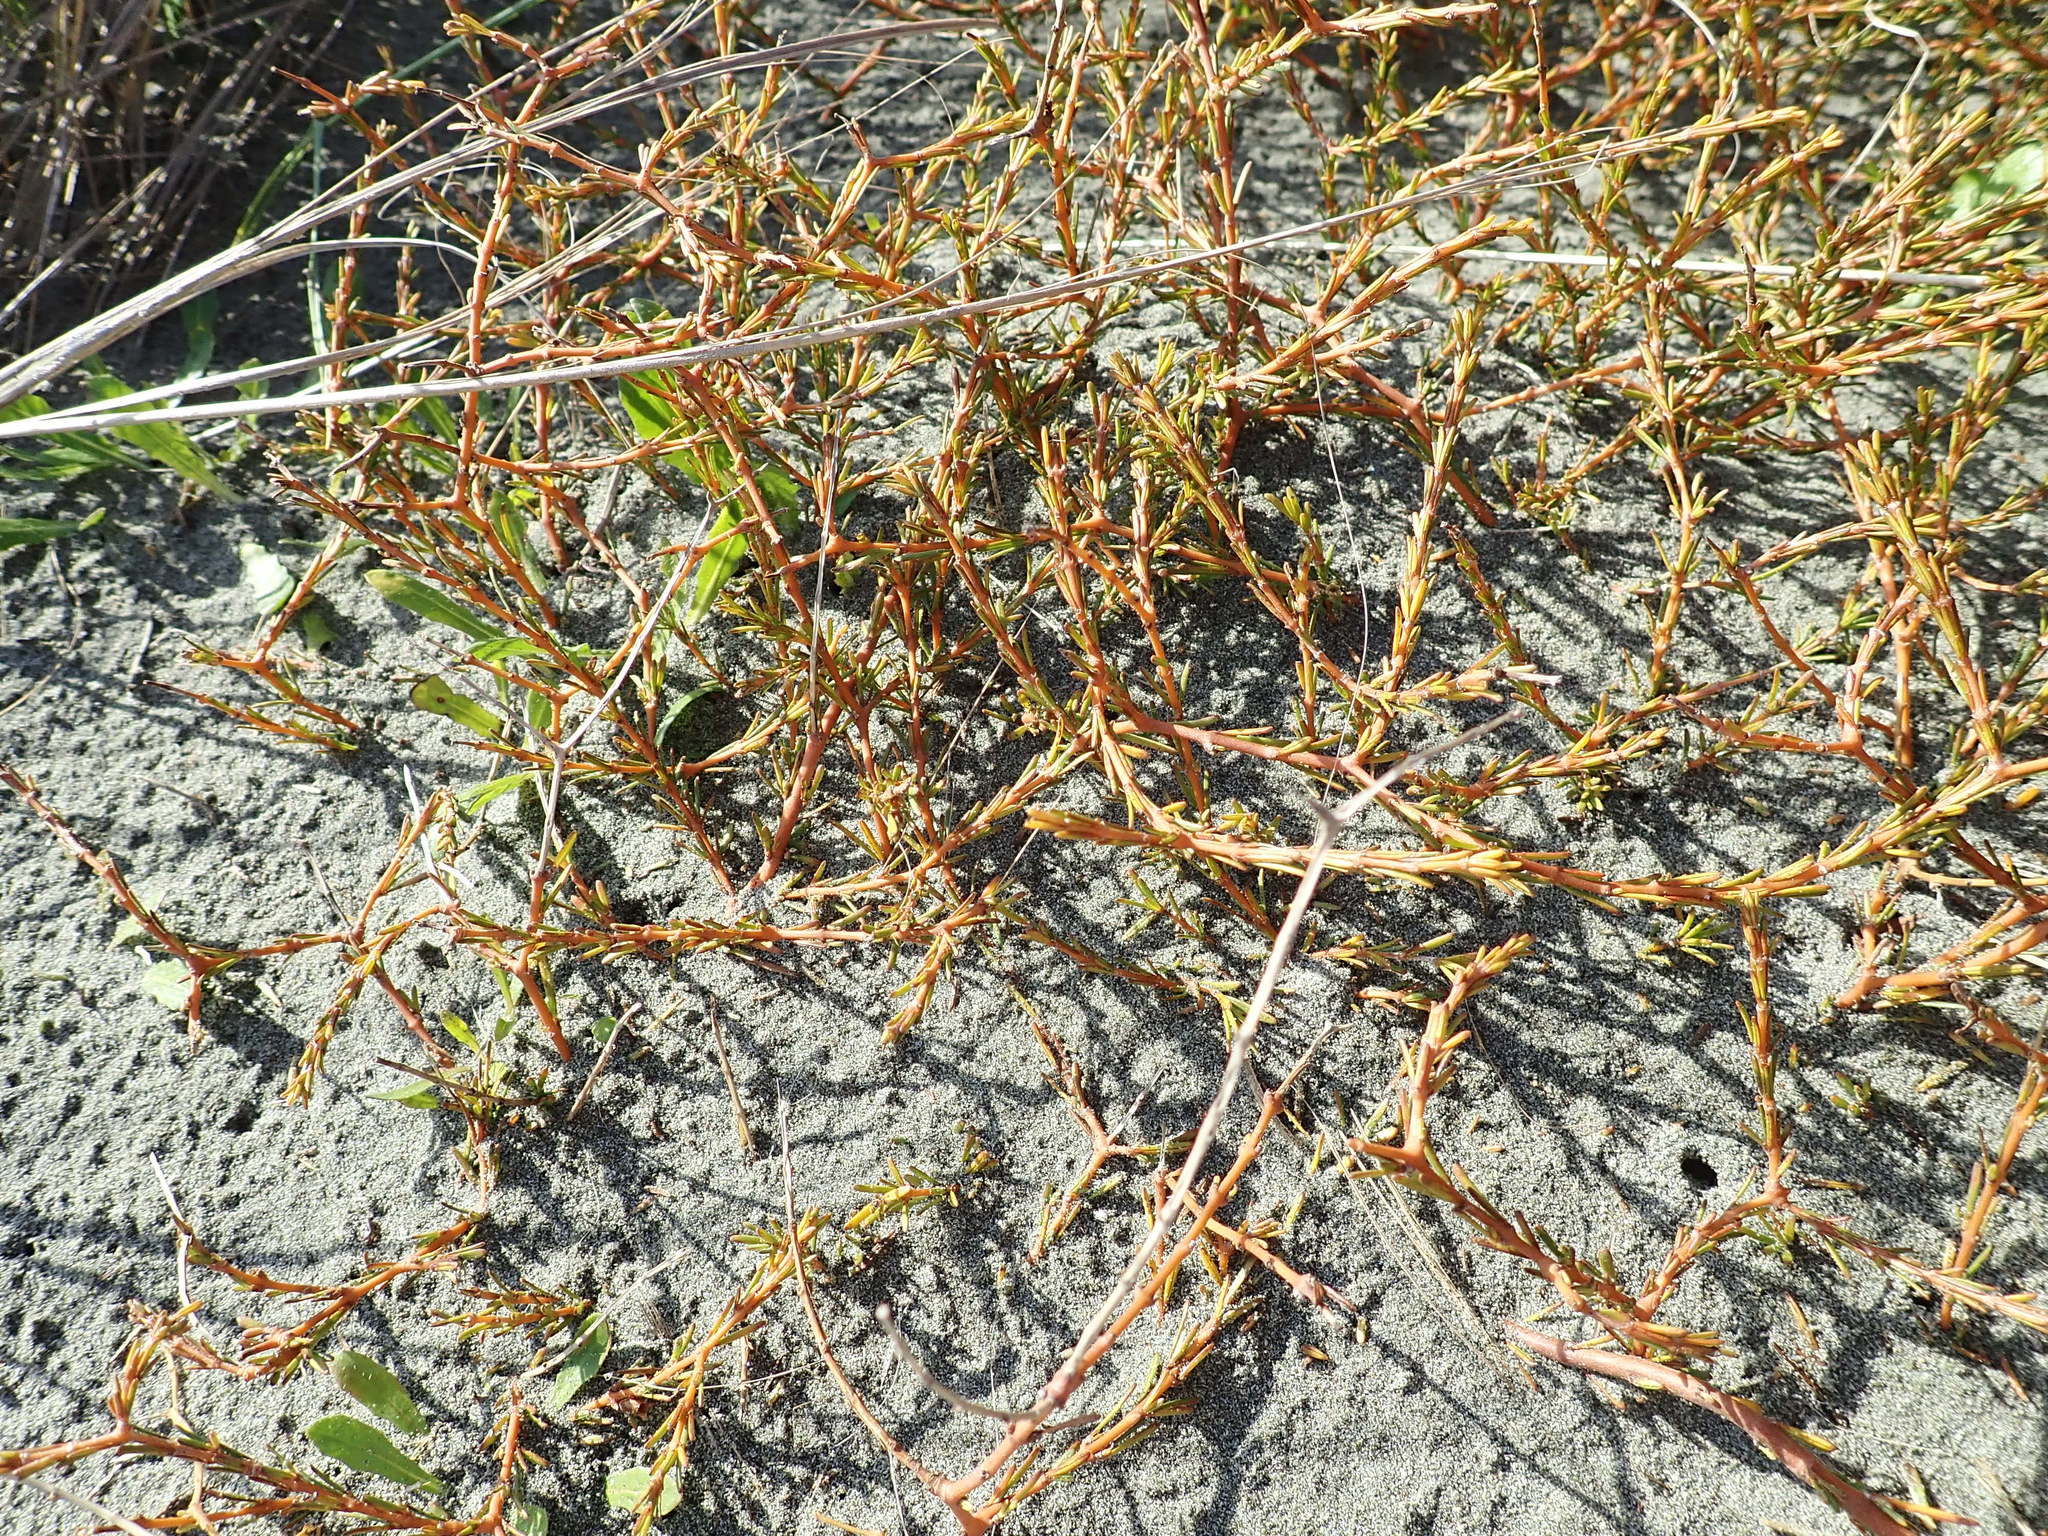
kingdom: Plantae
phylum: Tracheophyta
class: Magnoliopsida
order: Gentianales
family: Rubiaceae
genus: Coprosma
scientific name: Coprosma acerosa
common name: Sand coprosma
